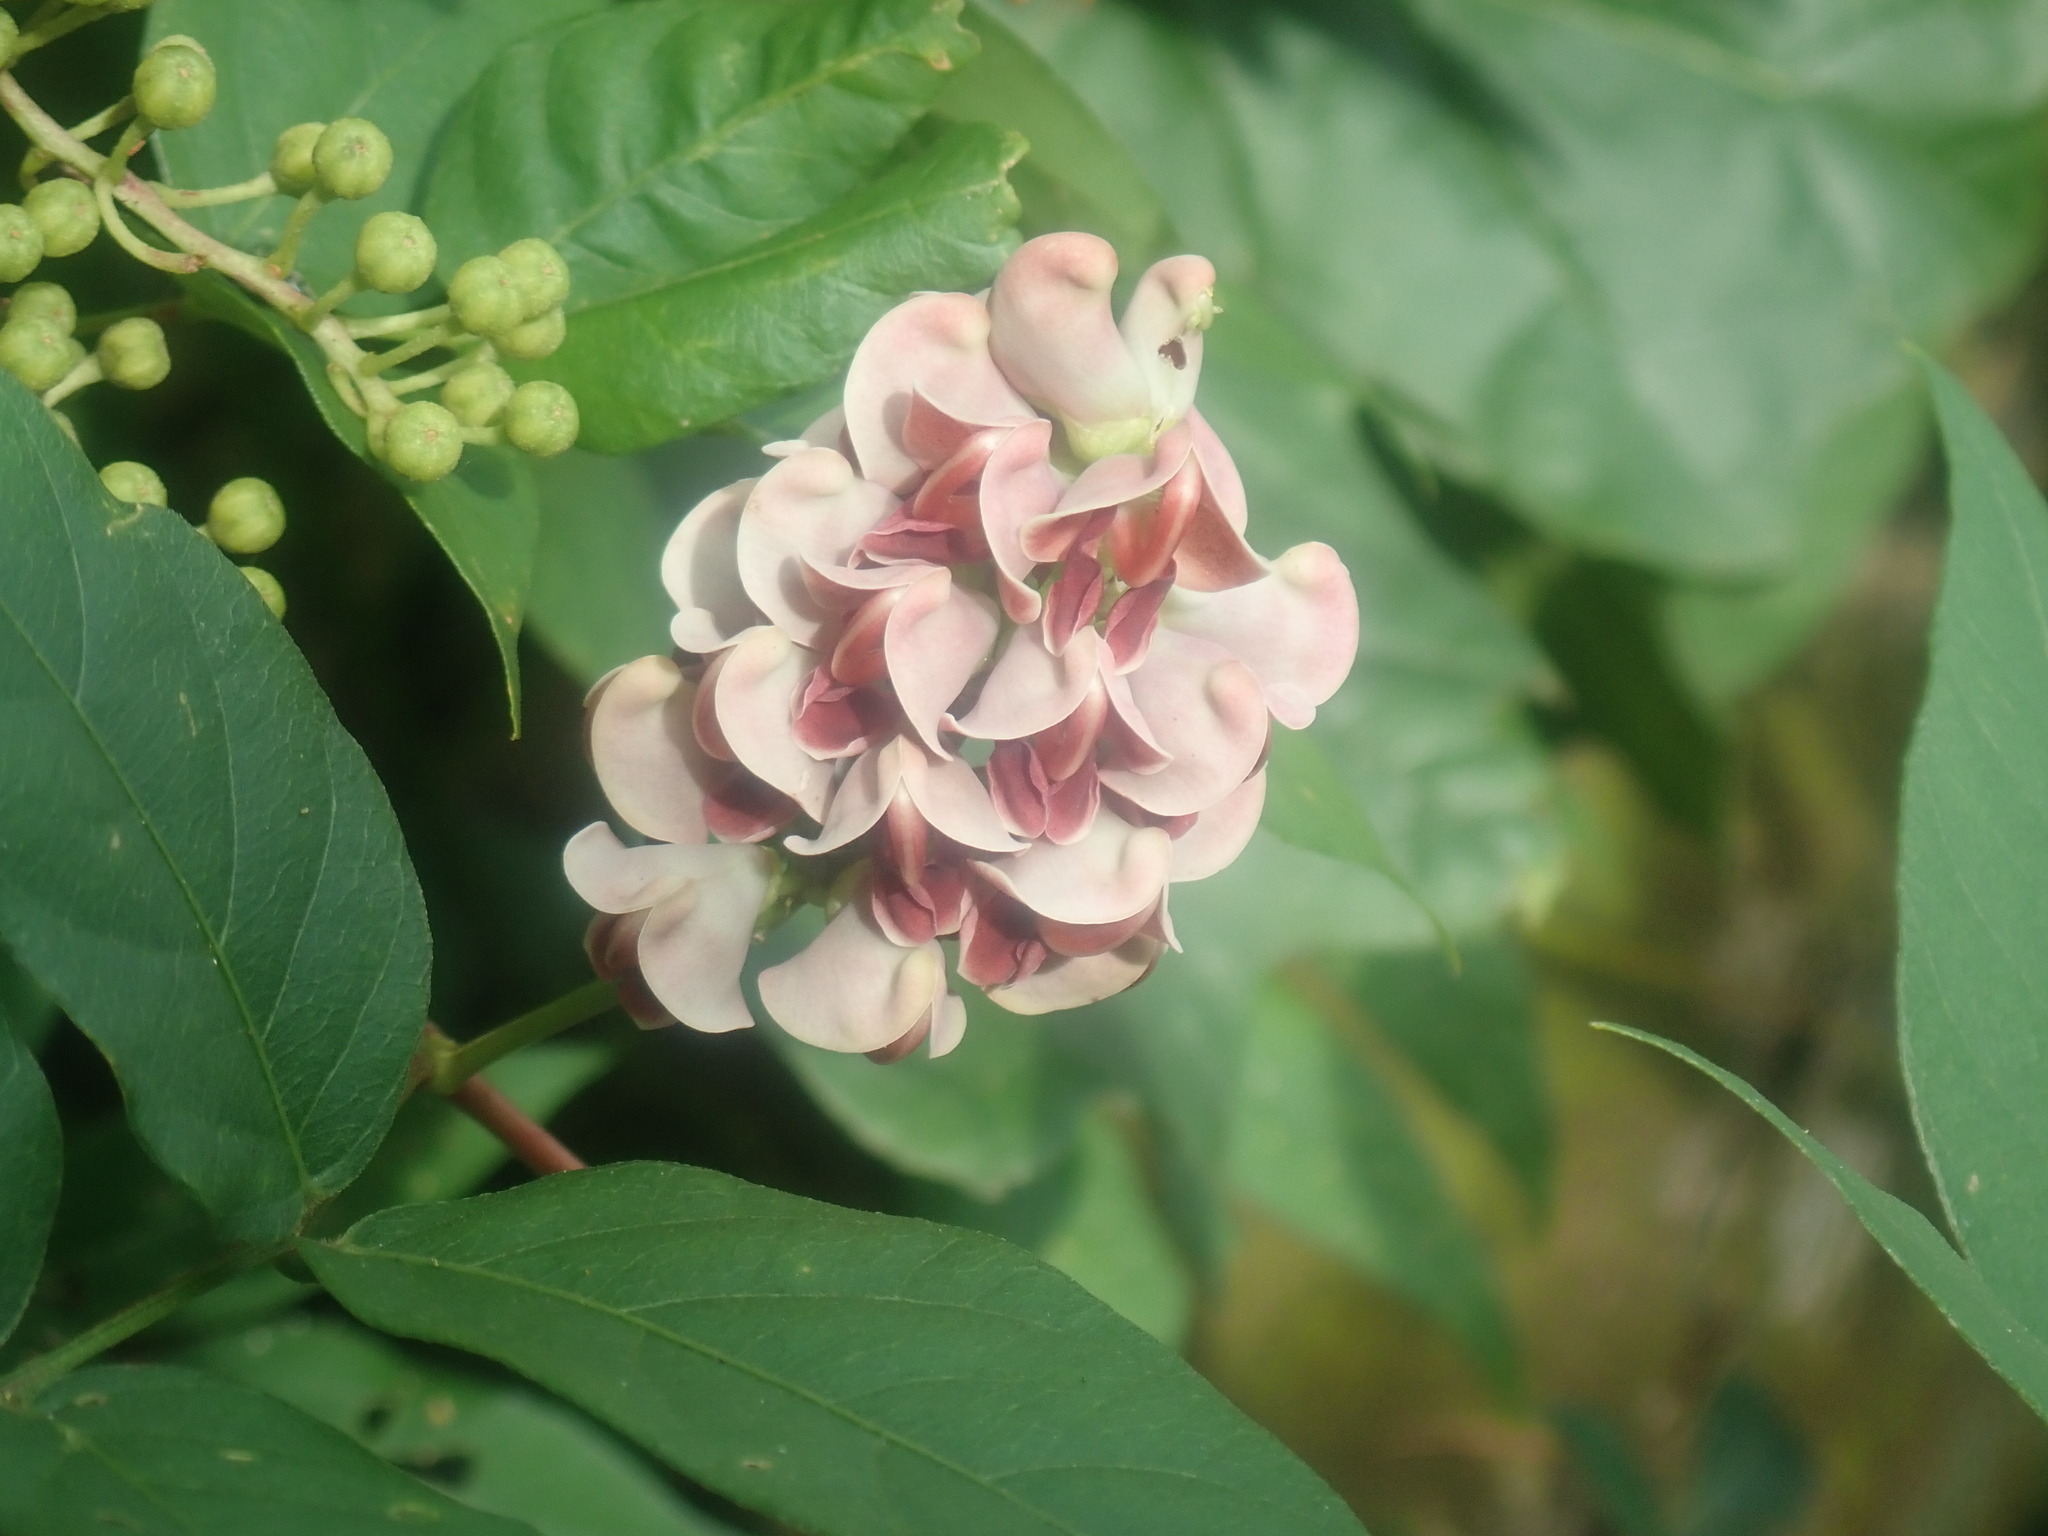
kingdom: Plantae
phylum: Tracheophyta
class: Magnoliopsida
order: Fabales
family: Fabaceae
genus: Apios
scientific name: Apios americana
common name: American potato-bean
